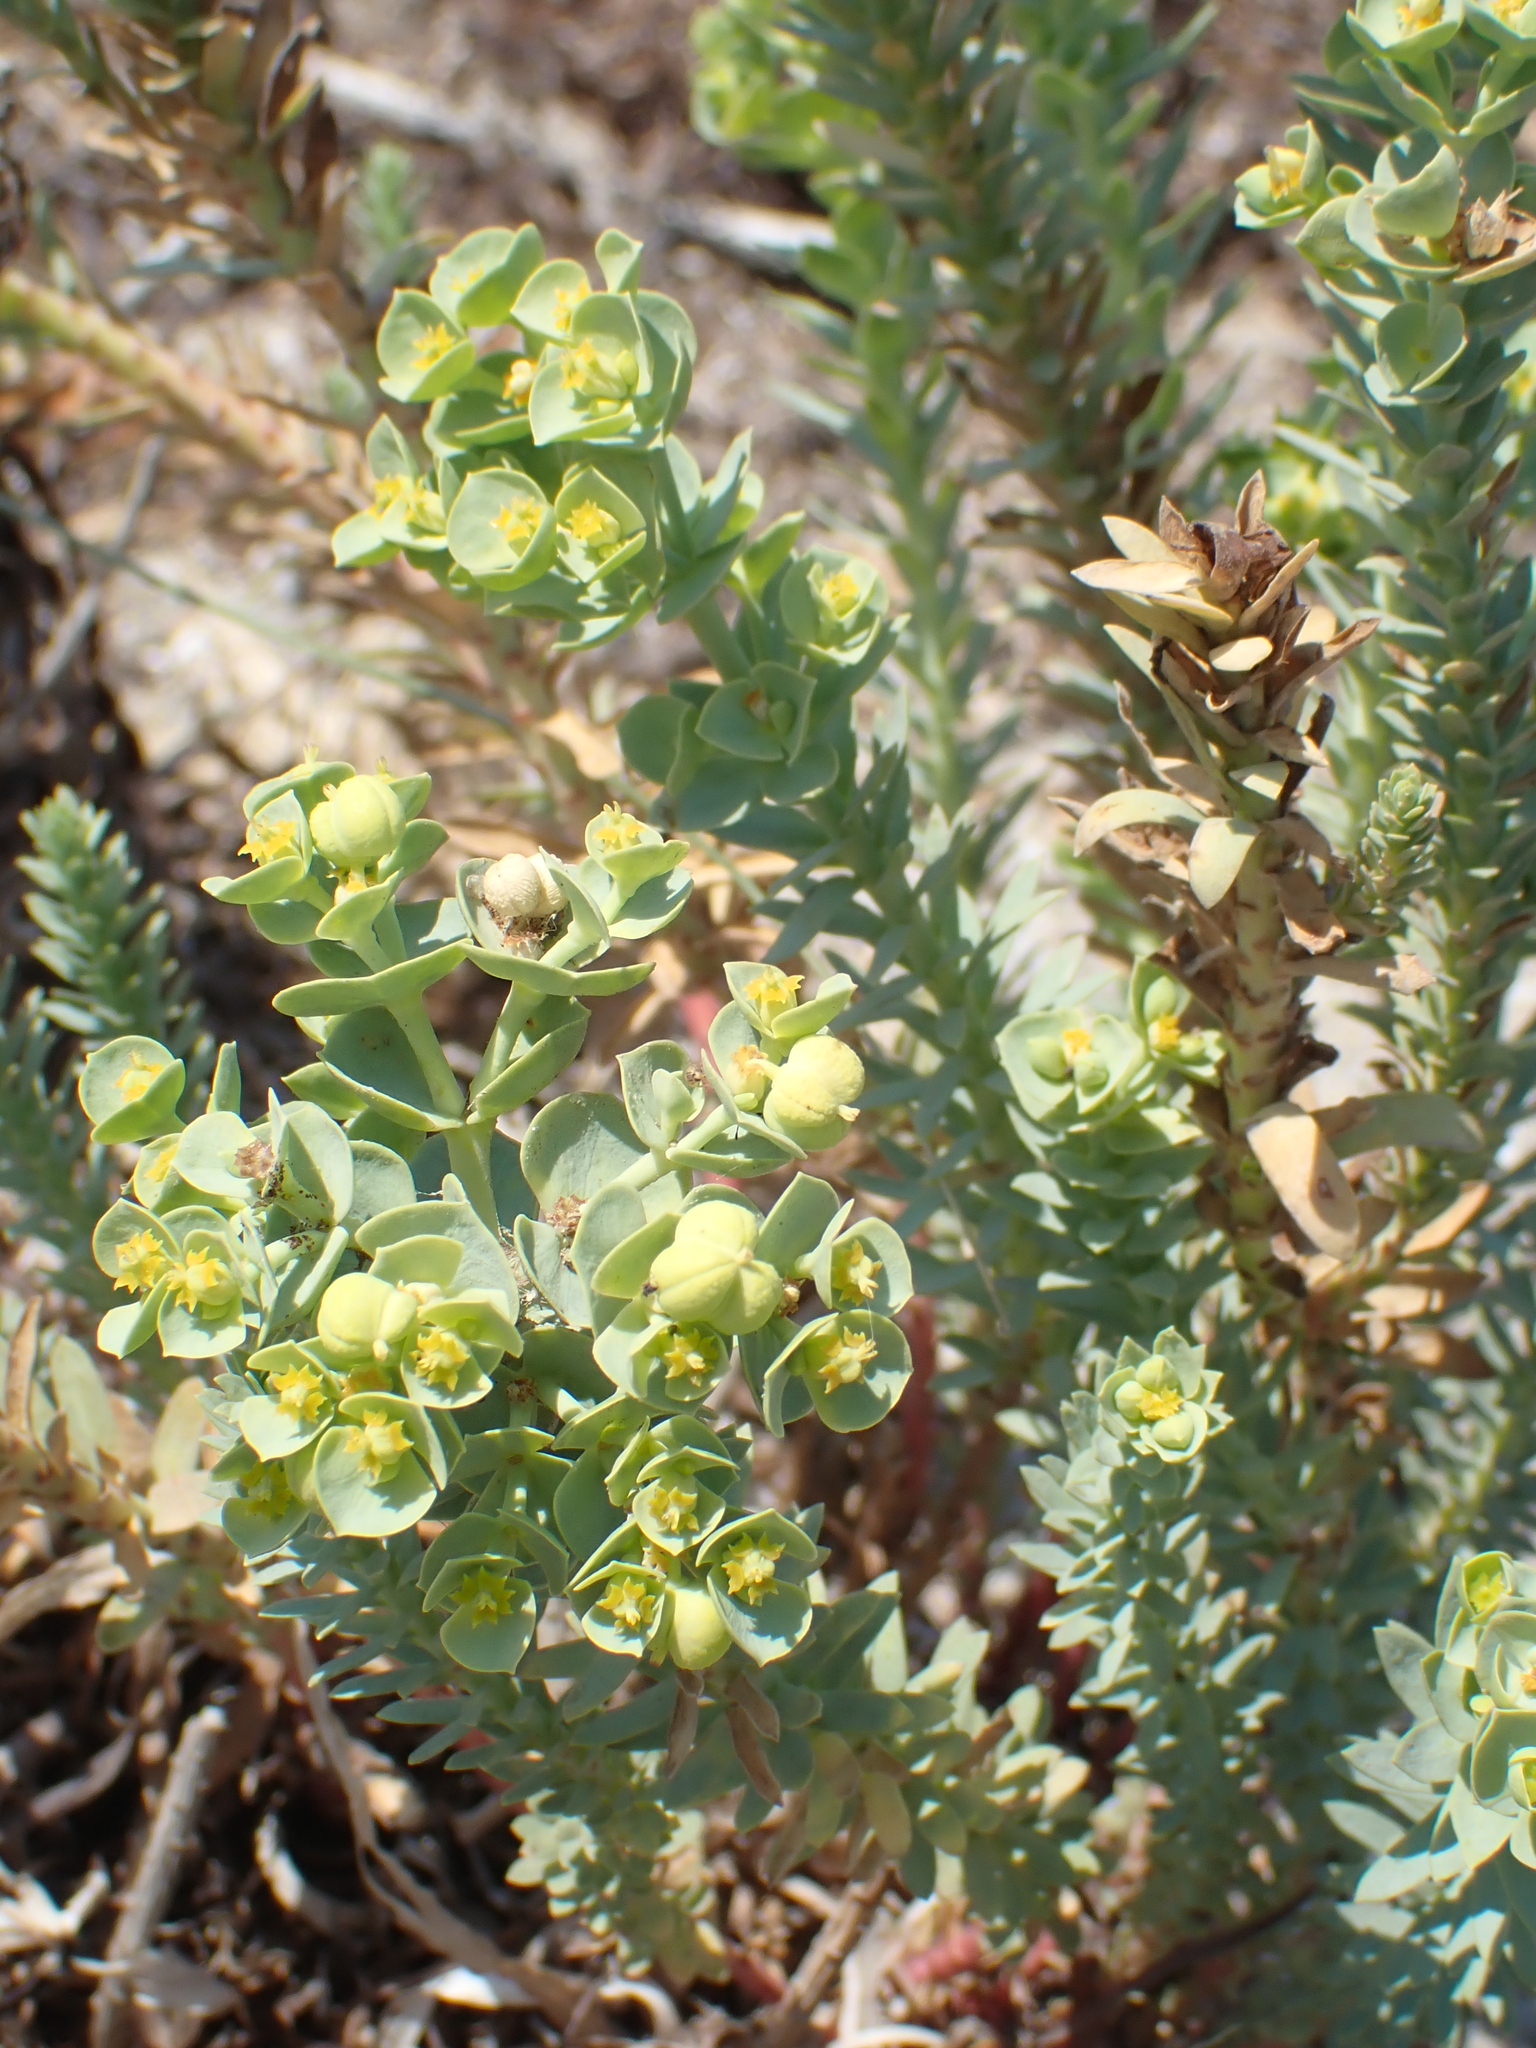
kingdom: Plantae
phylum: Tracheophyta
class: Magnoliopsida
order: Malpighiales
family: Euphorbiaceae
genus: Euphorbia
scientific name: Euphorbia paralias
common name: Sea spurge
